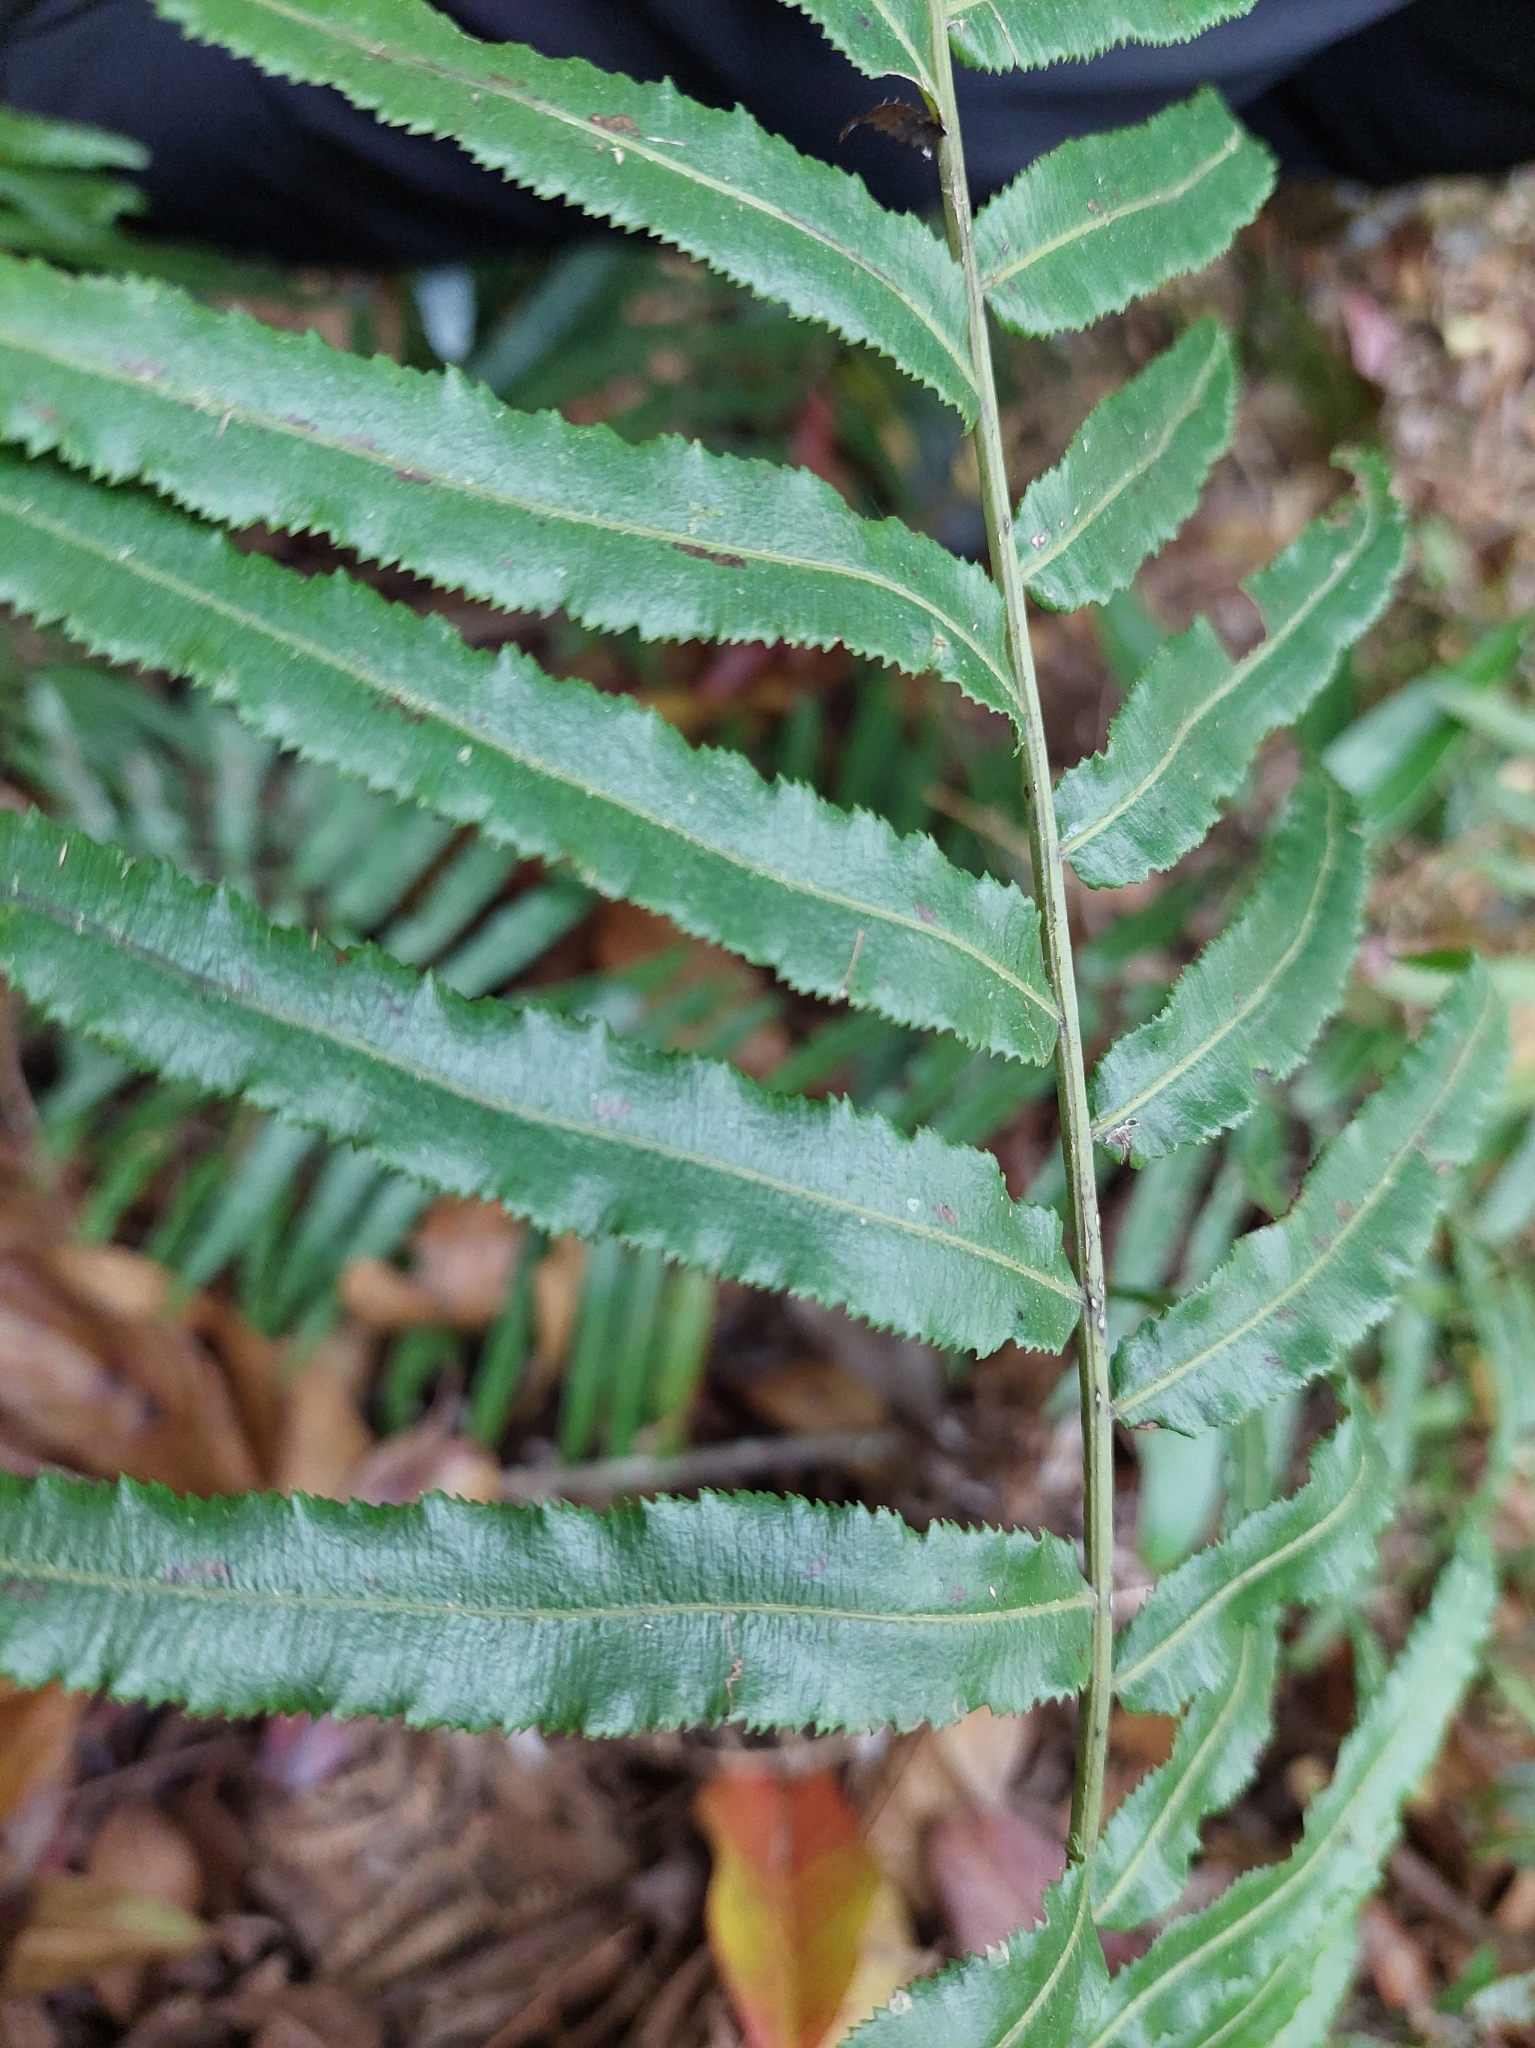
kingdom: Plantae
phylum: Tracheophyta
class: Polypodiopsida
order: Cyatheales
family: Plagiogyriaceae
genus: Plagiogyria
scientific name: Plagiogyria glauca
